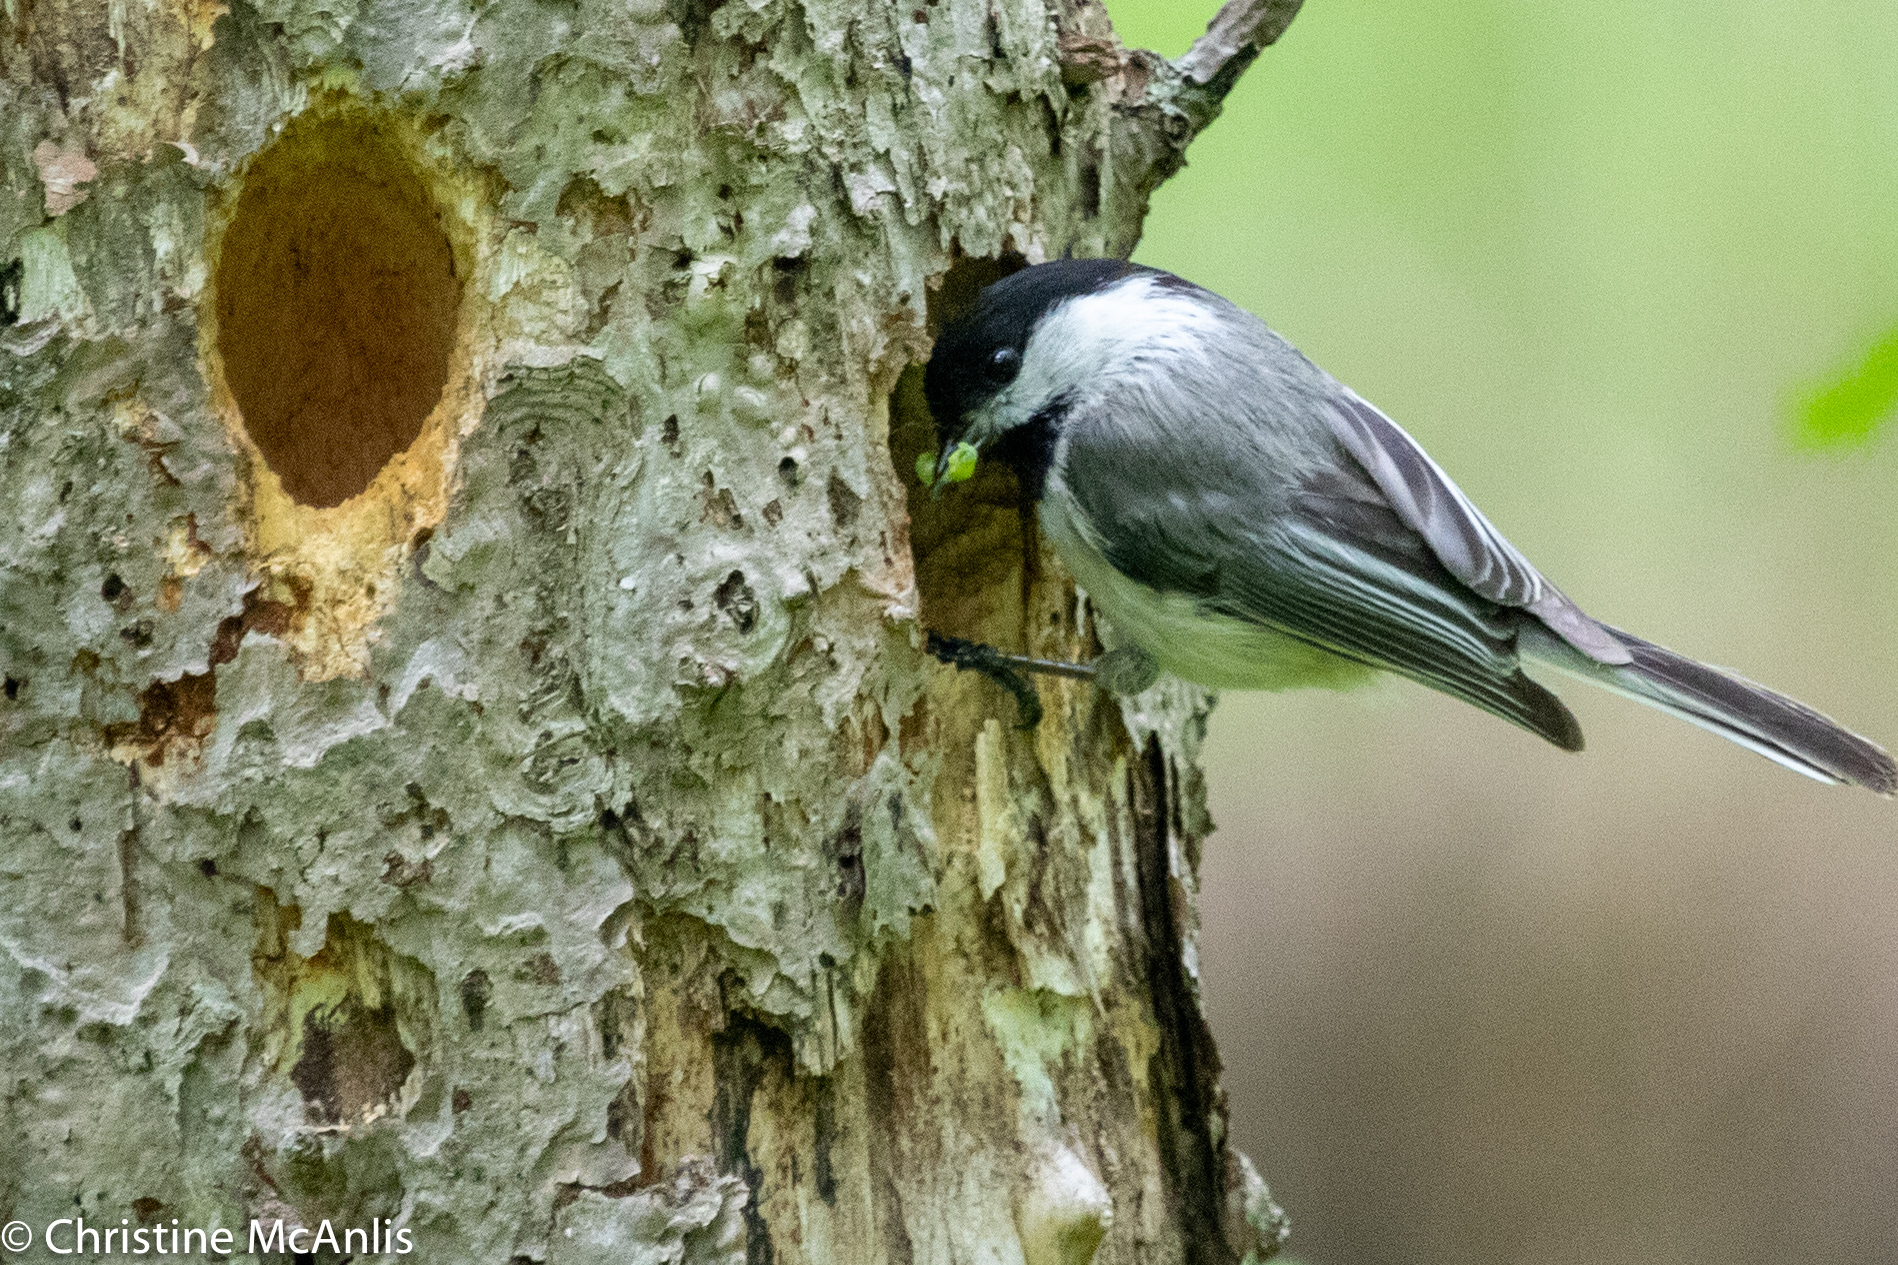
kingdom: Animalia
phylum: Chordata
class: Aves
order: Passeriformes
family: Paridae
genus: Poecile
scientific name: Poecile atricapillus
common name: Black-capped chickadee
